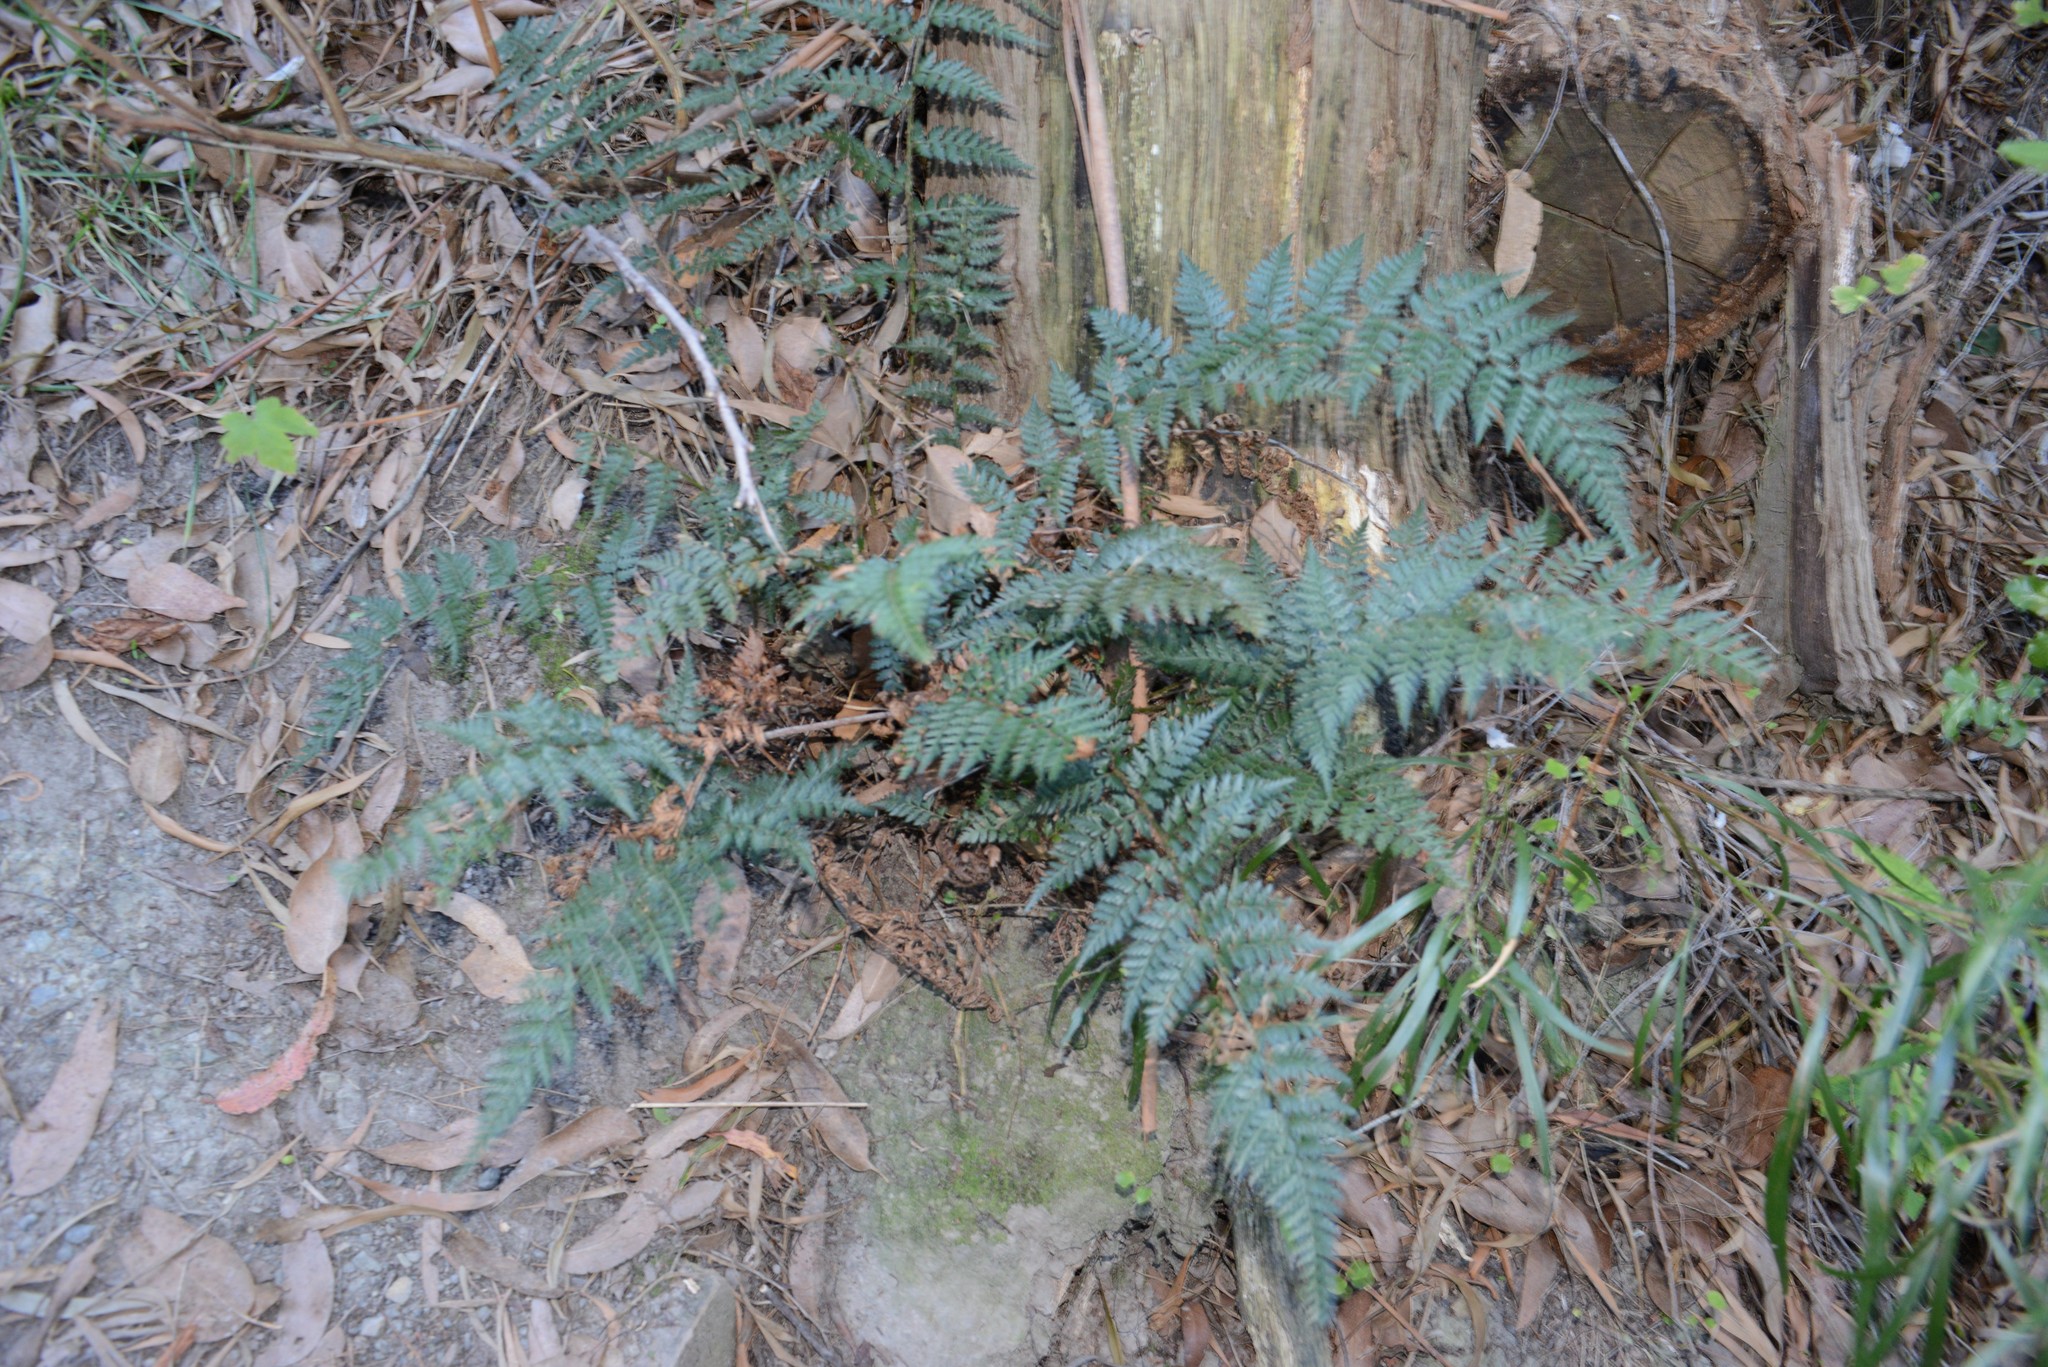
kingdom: Plantae
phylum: Tracheophyta
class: Polypodiopsida
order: Polypodiales
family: Dryopteridaceae
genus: Polystichum
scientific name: Polystichum vestitum
